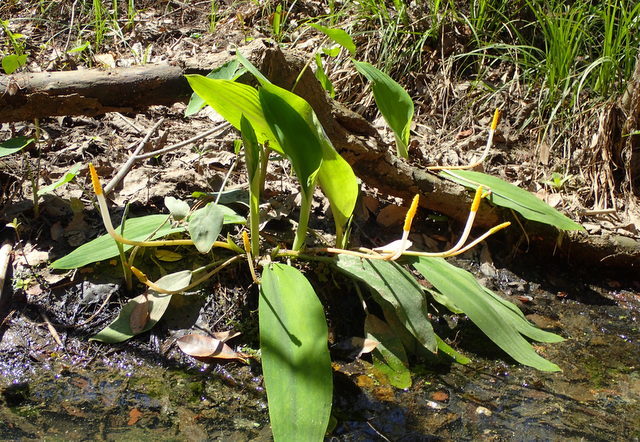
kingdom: Plantae
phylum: Tracheophyta
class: Liliopsida
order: Alismatales
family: Araceae
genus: Orontium
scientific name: Orontium aquaticum
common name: Golden-club
